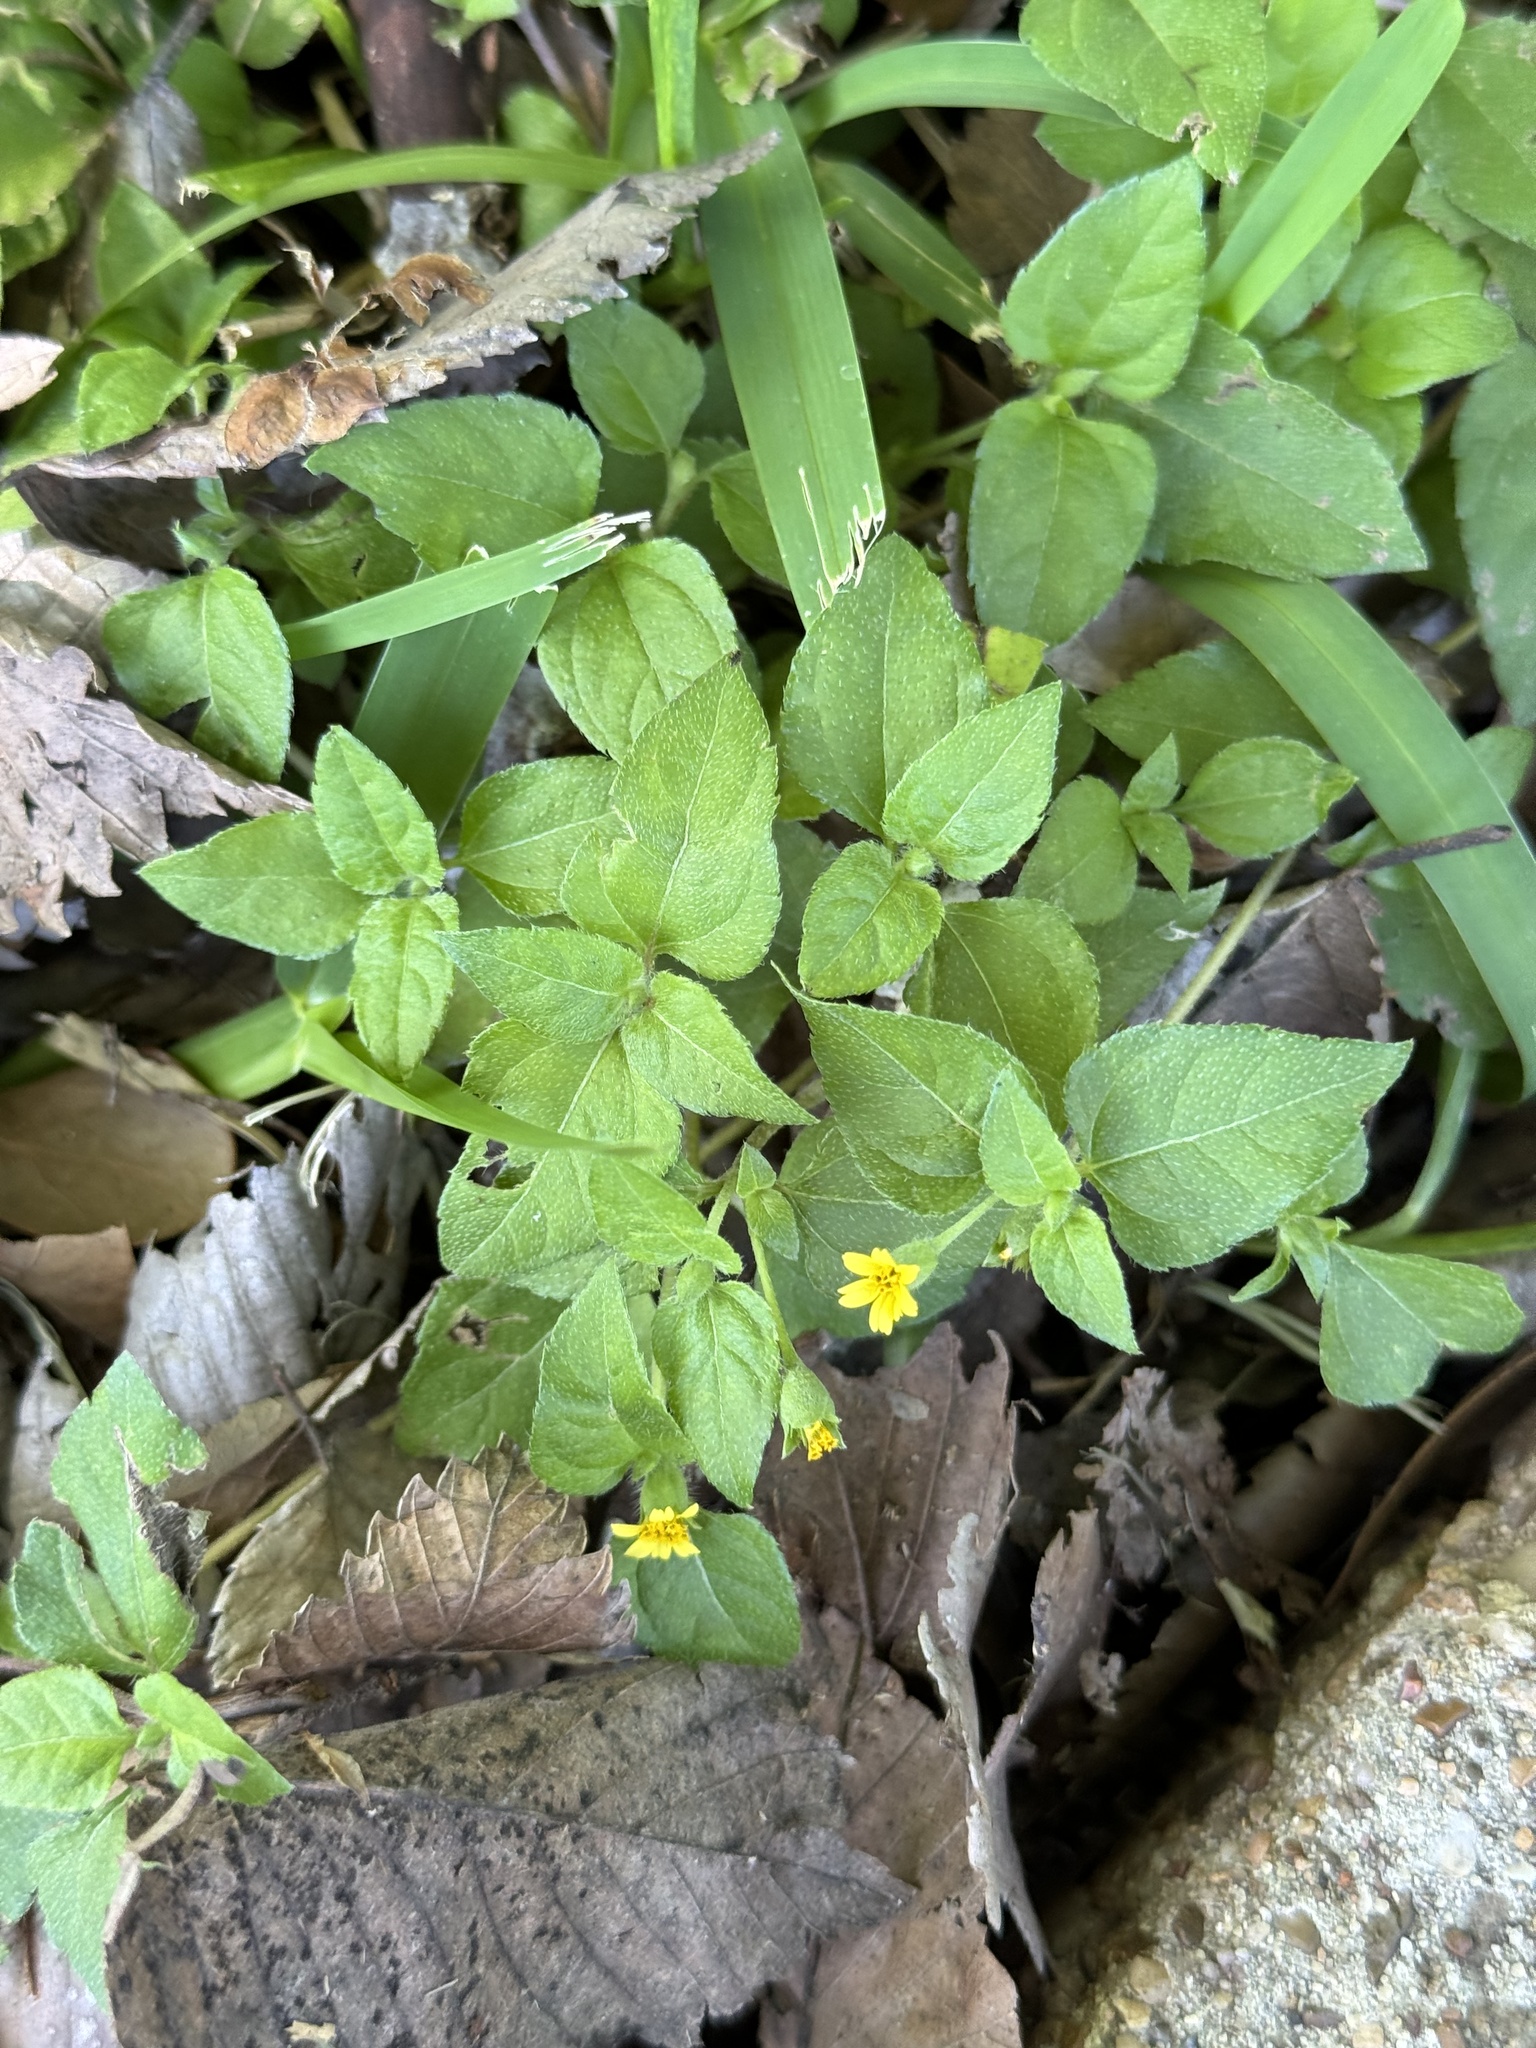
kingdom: Plantae
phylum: Tracheophyta
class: Magnoliopsida
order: Asterales
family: Asteraceae
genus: Calyptocarpus
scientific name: Calyptocarpus vialis
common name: Straggler daisy
